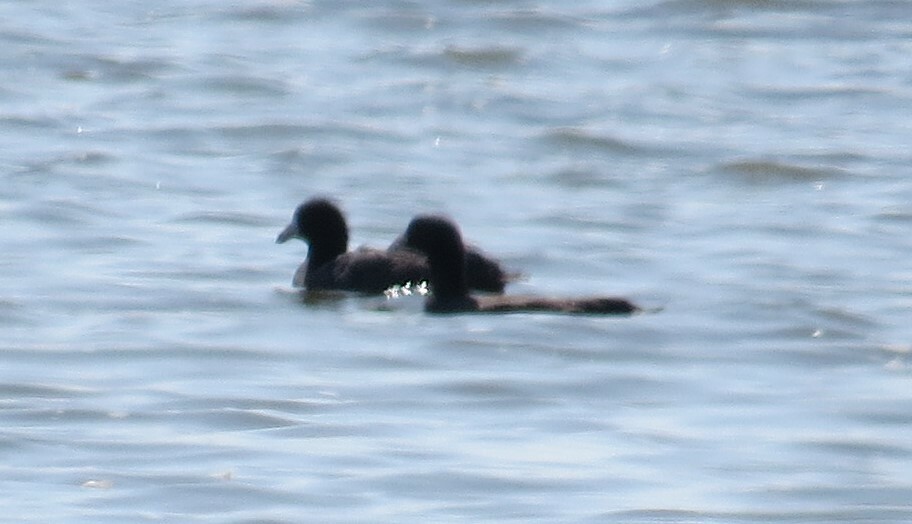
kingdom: Animalia
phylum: Chordata
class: Aves
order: Gruiformes
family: Rallidae
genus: Fulica
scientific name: Fulica americana
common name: American coot
